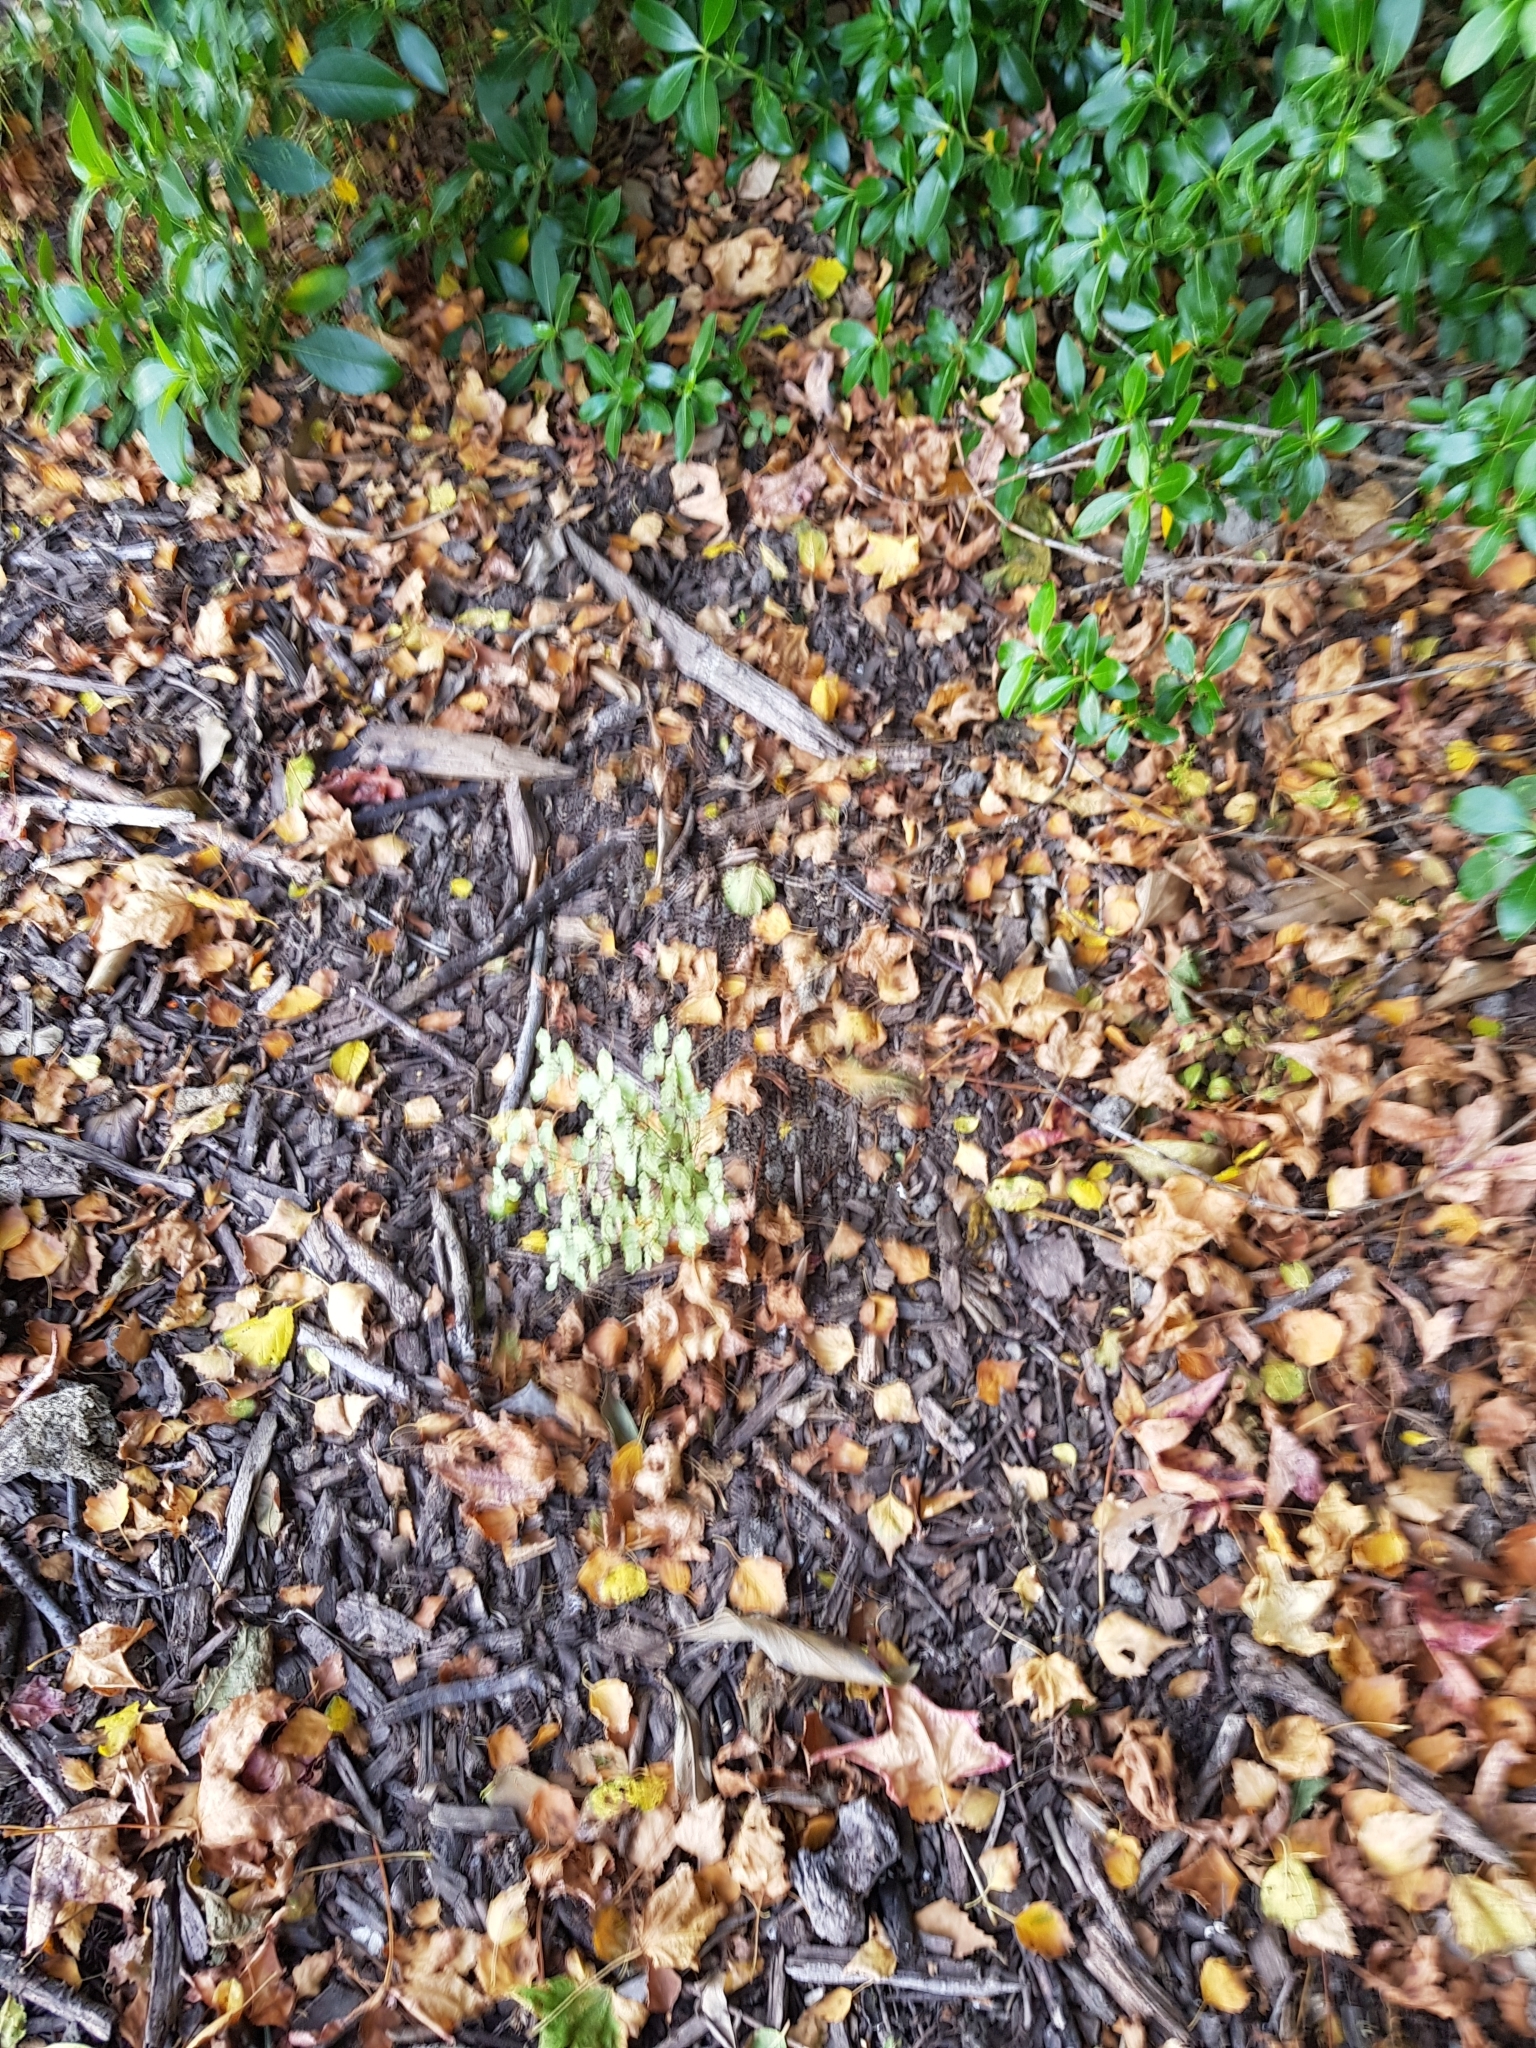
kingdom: Plantae
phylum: Tracheophyta
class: Magnoliopsida
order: Apiales
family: Pittosporaceae
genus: Pittosporum
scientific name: Pittosporum tenuifolium
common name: Kohuhu
